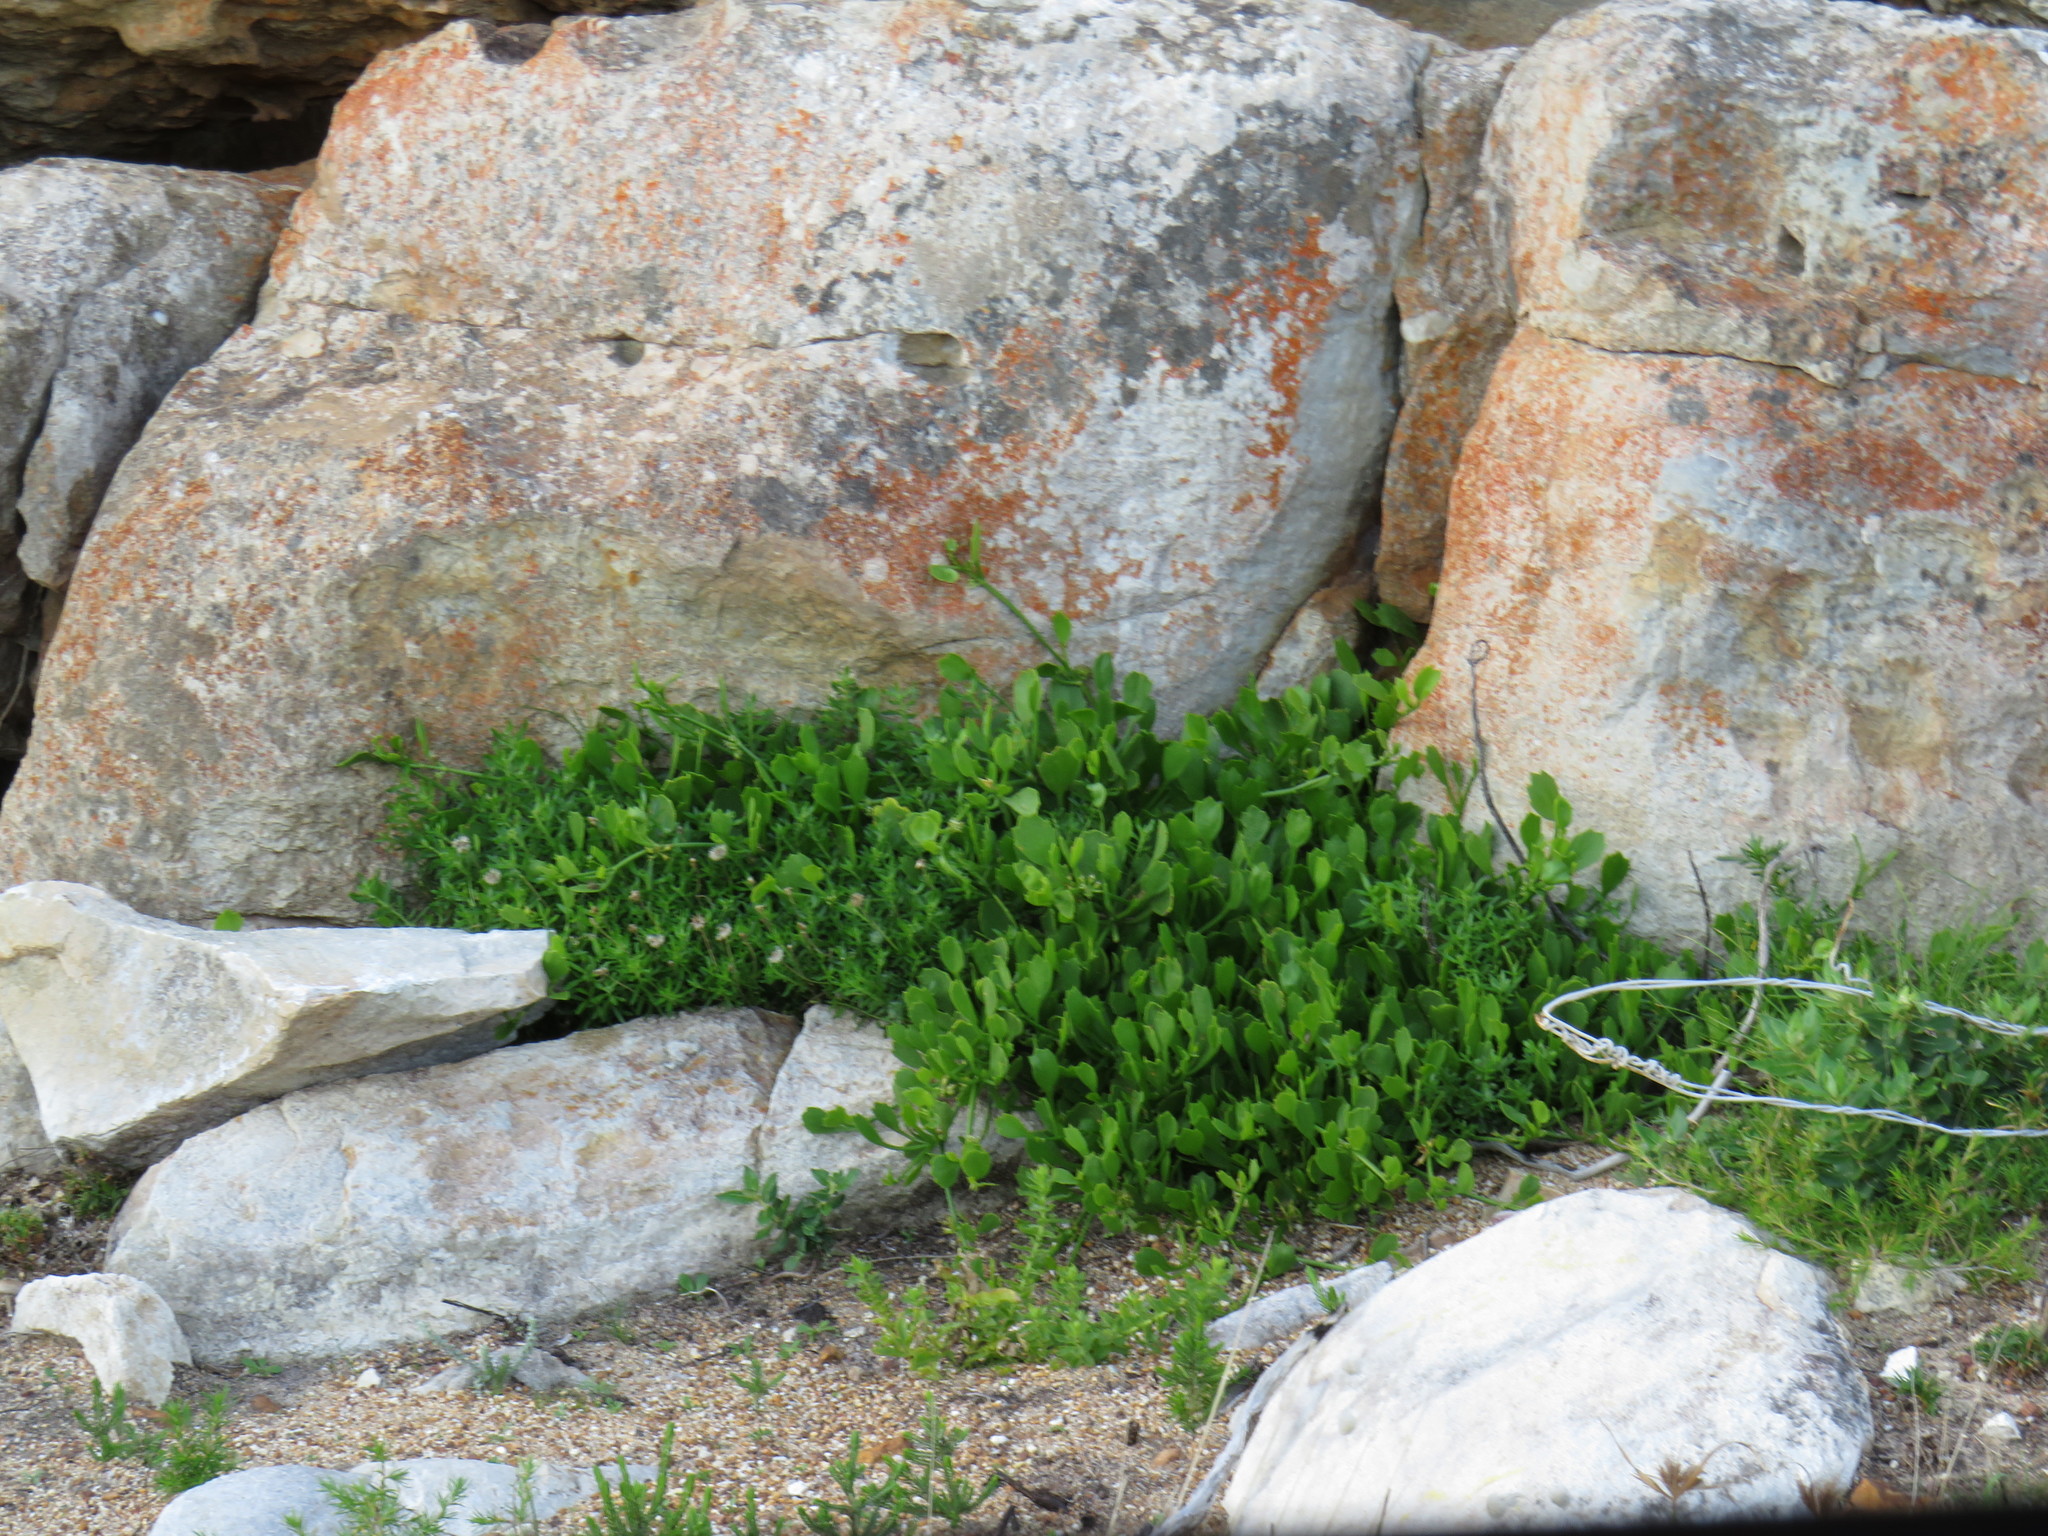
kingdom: Plantae
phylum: Tracheophyta
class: Magnoliopsida
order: Apiales
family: Apiaceae
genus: Centella
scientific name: Centella triloba
